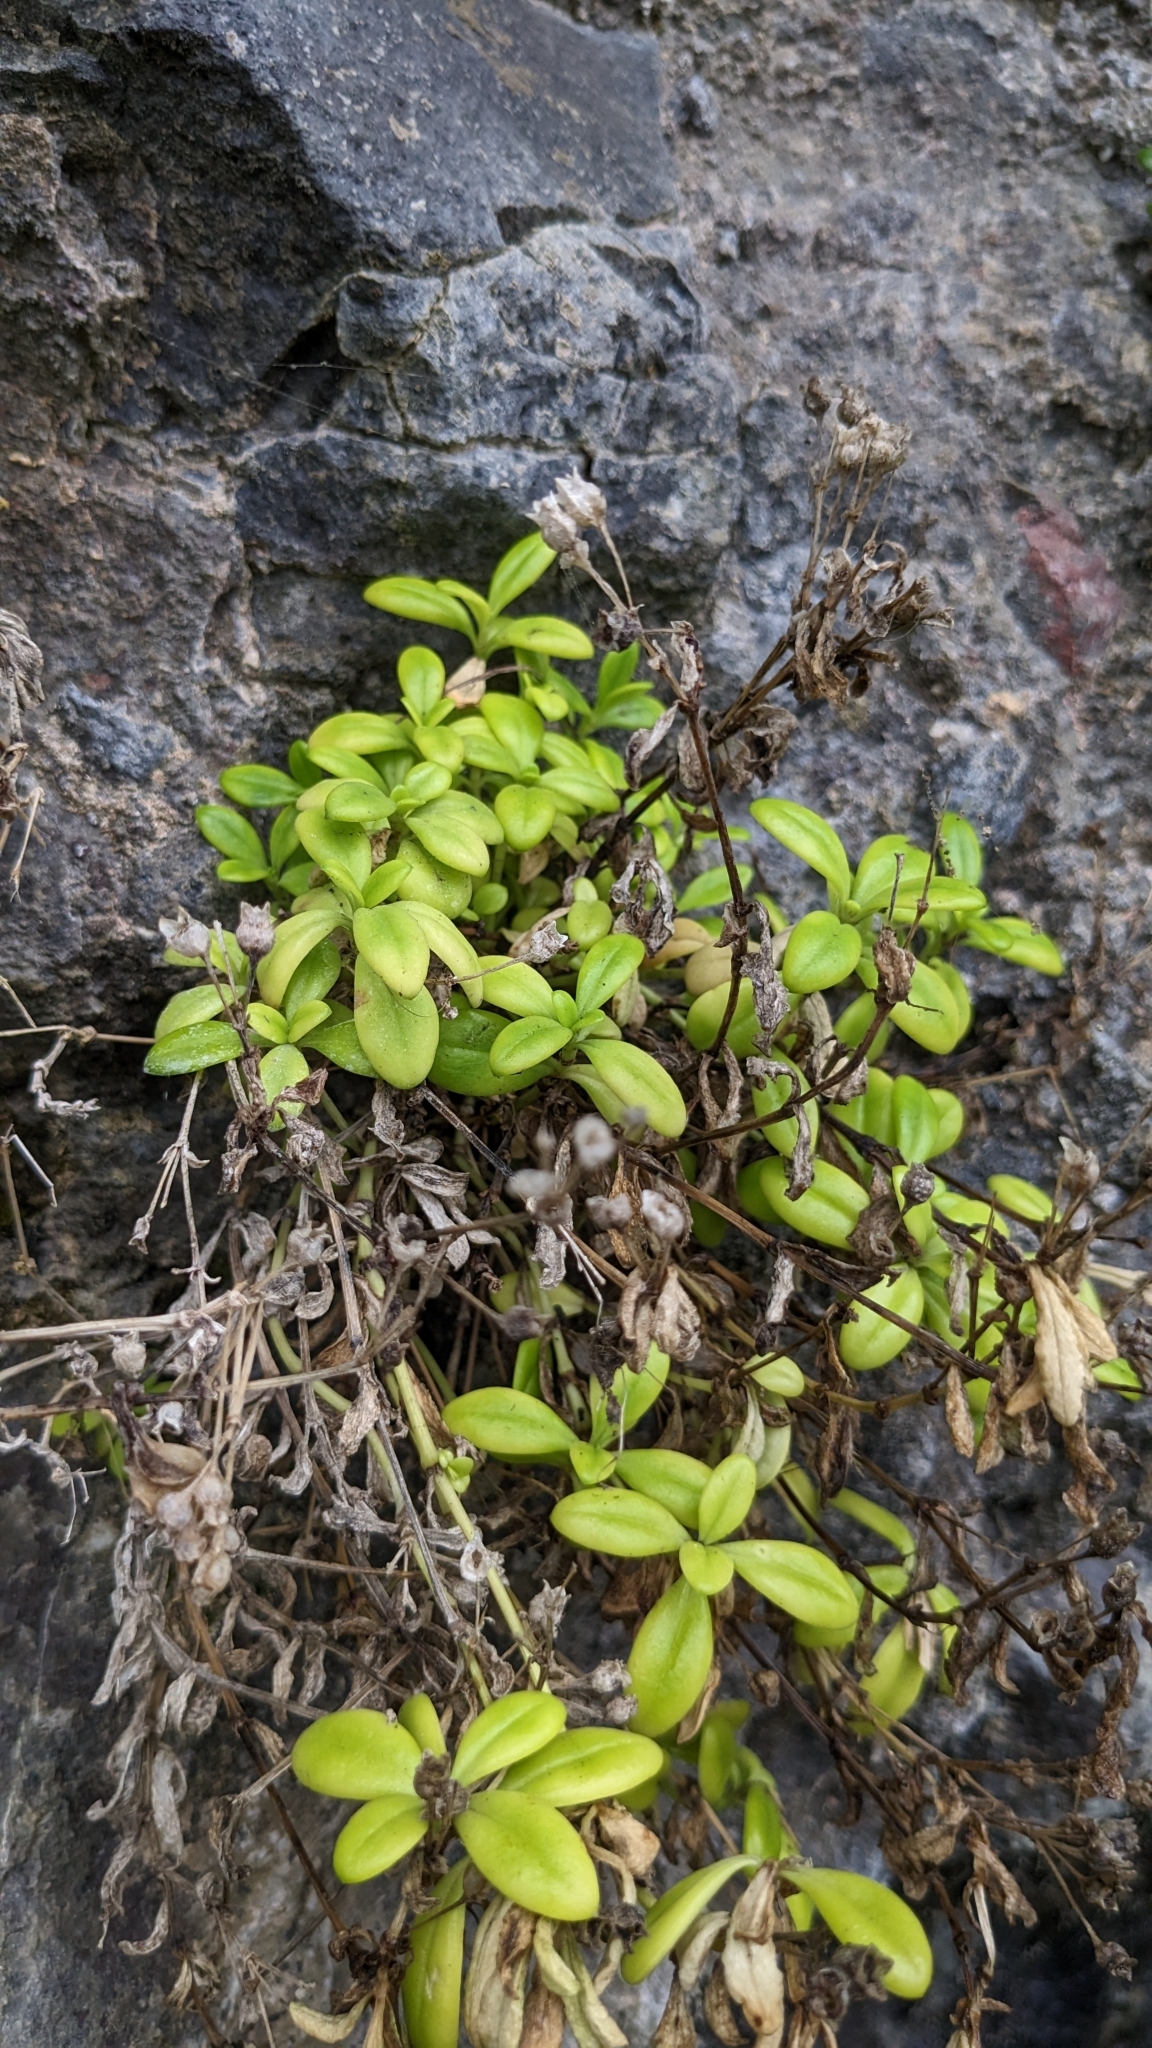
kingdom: Plantae
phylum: Tracheophyta
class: Magnoliopsida
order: Gentianales
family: Rubiaceae
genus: Leptopetalum
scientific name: Leptopetalum strigulosum
